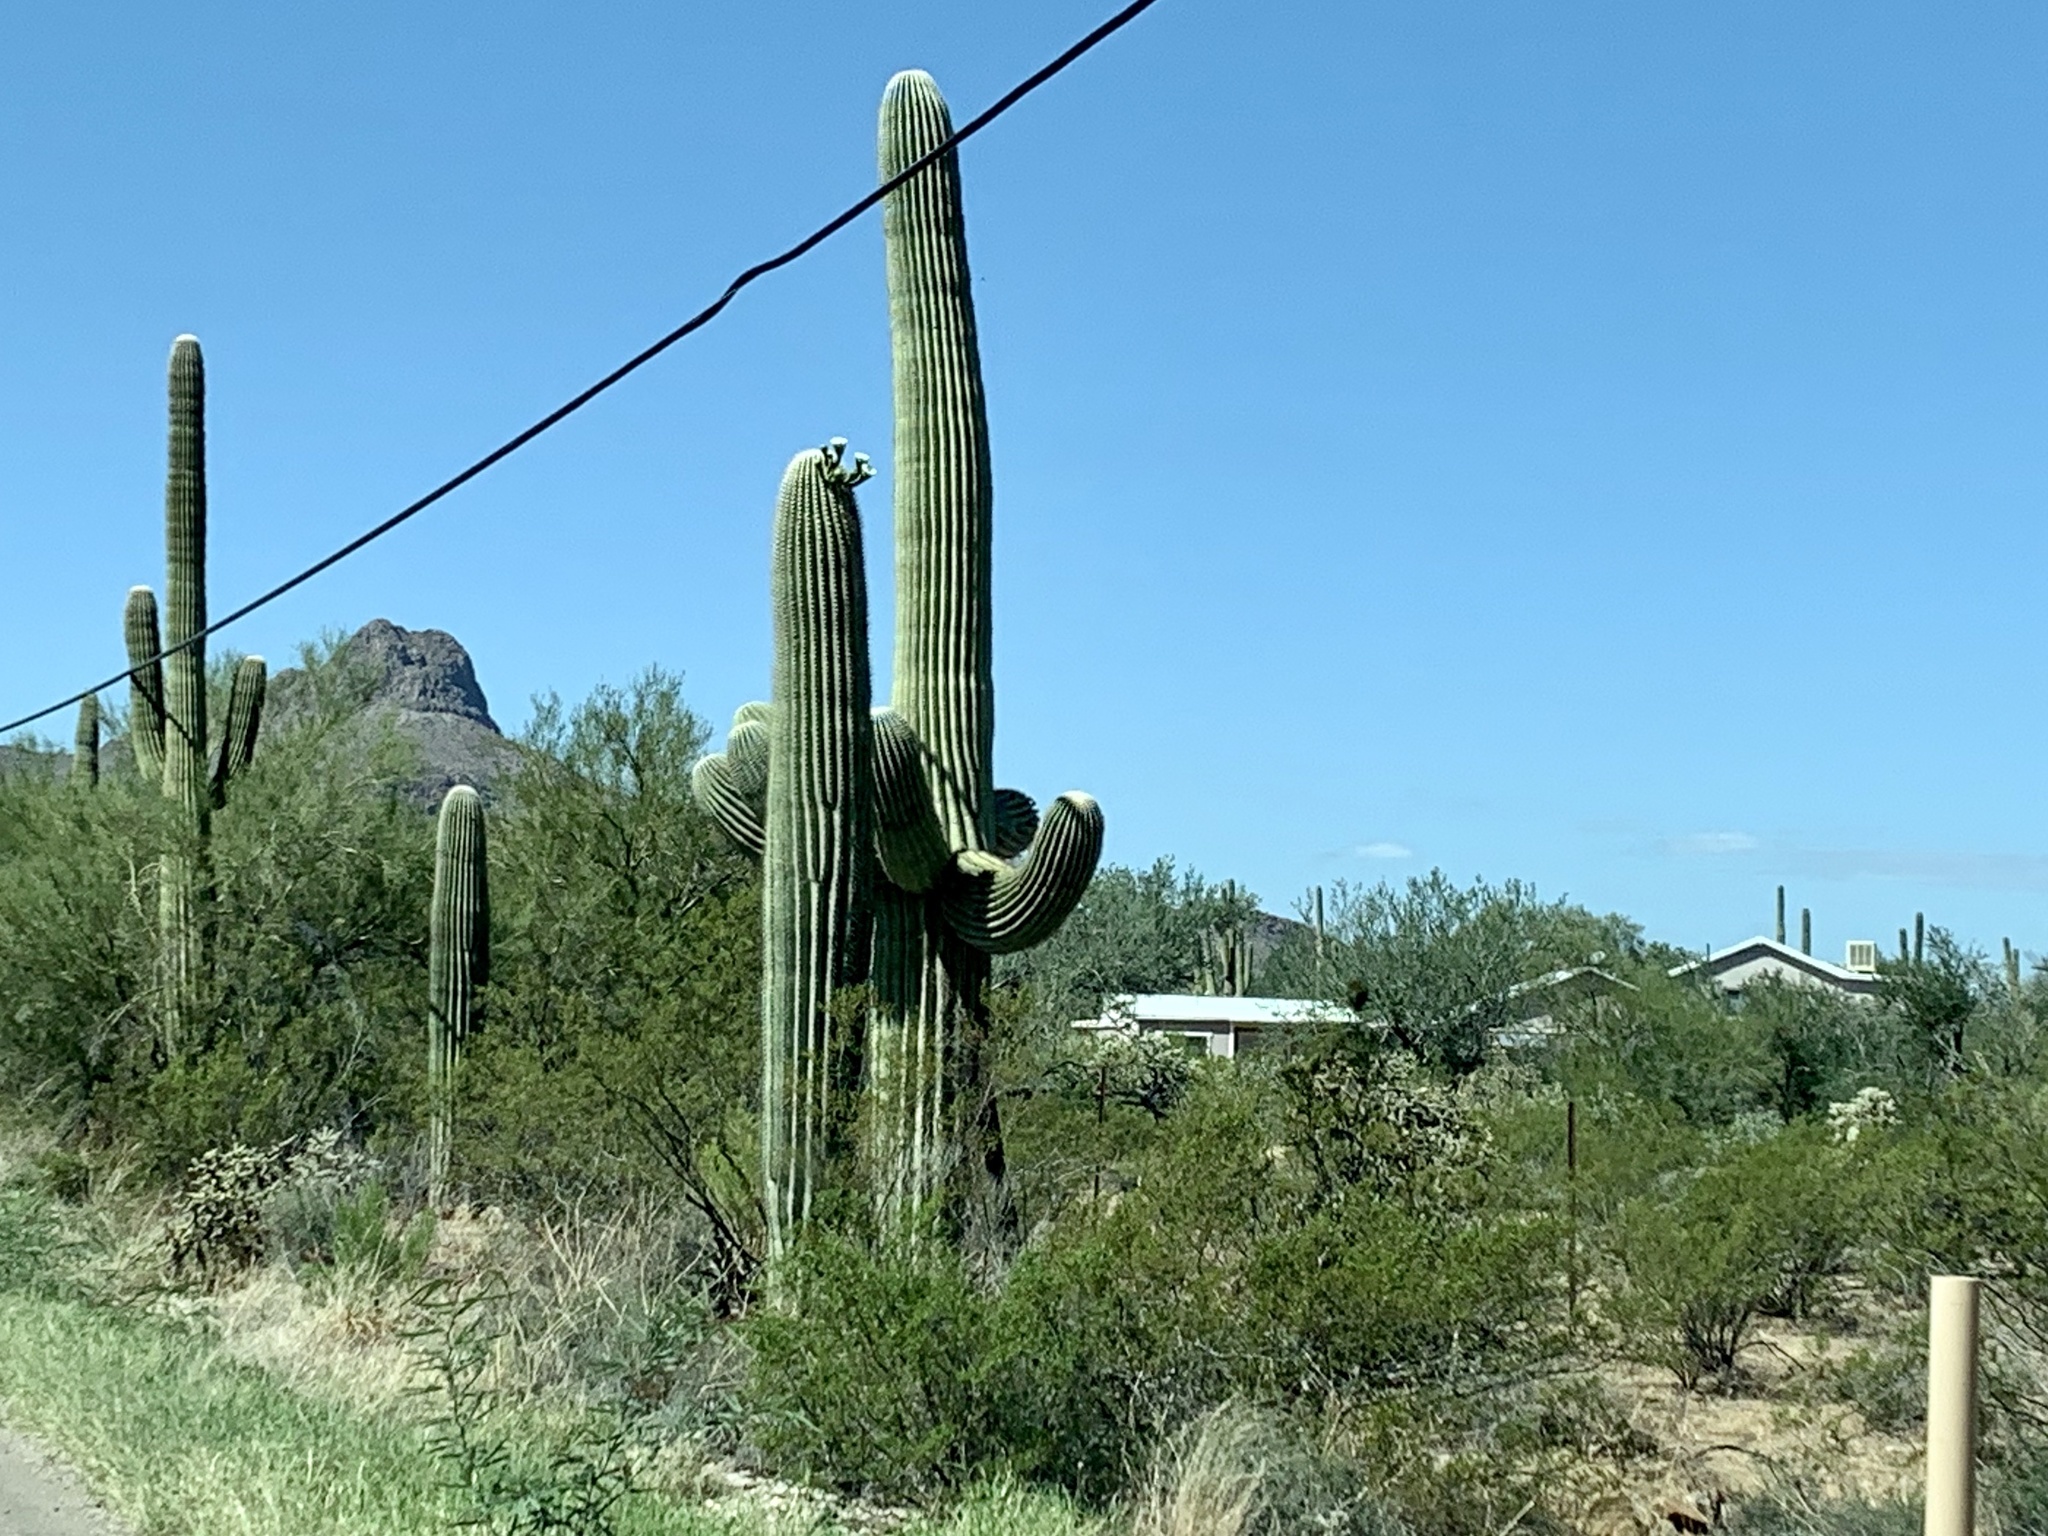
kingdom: Plantae
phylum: Tracheophyta
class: Magnoliopsida
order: Caryophyllales
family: Cactaceae
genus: Carnegiea
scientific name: Carnegiea gigantea
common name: Saguaro
